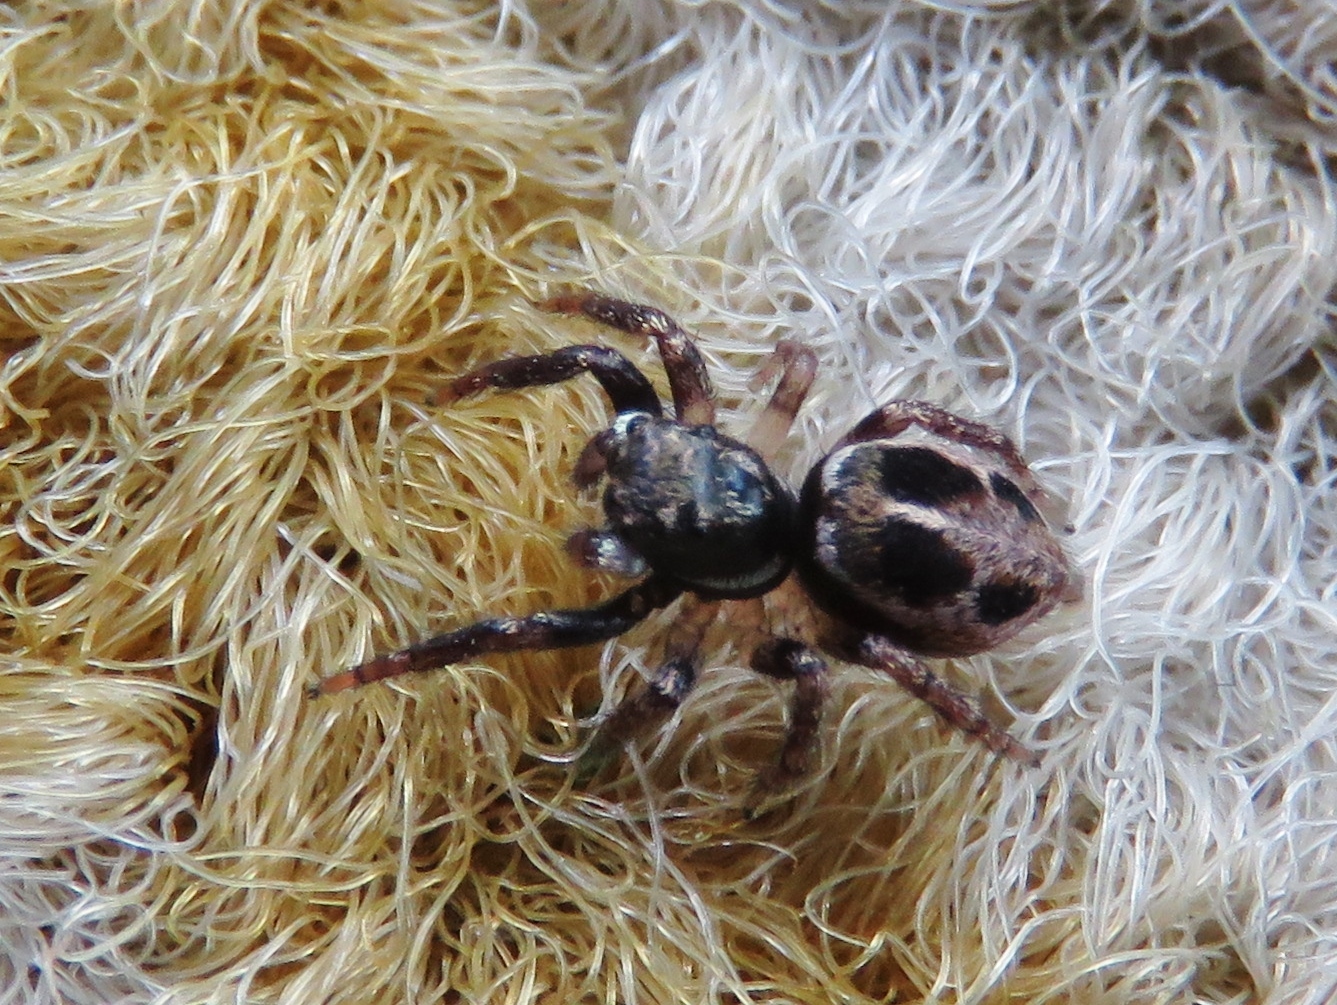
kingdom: Animalia
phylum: Arthropoda
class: Arachnida
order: Araneae
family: Salticidae
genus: Anasaitis
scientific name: Anasaitis canosa
